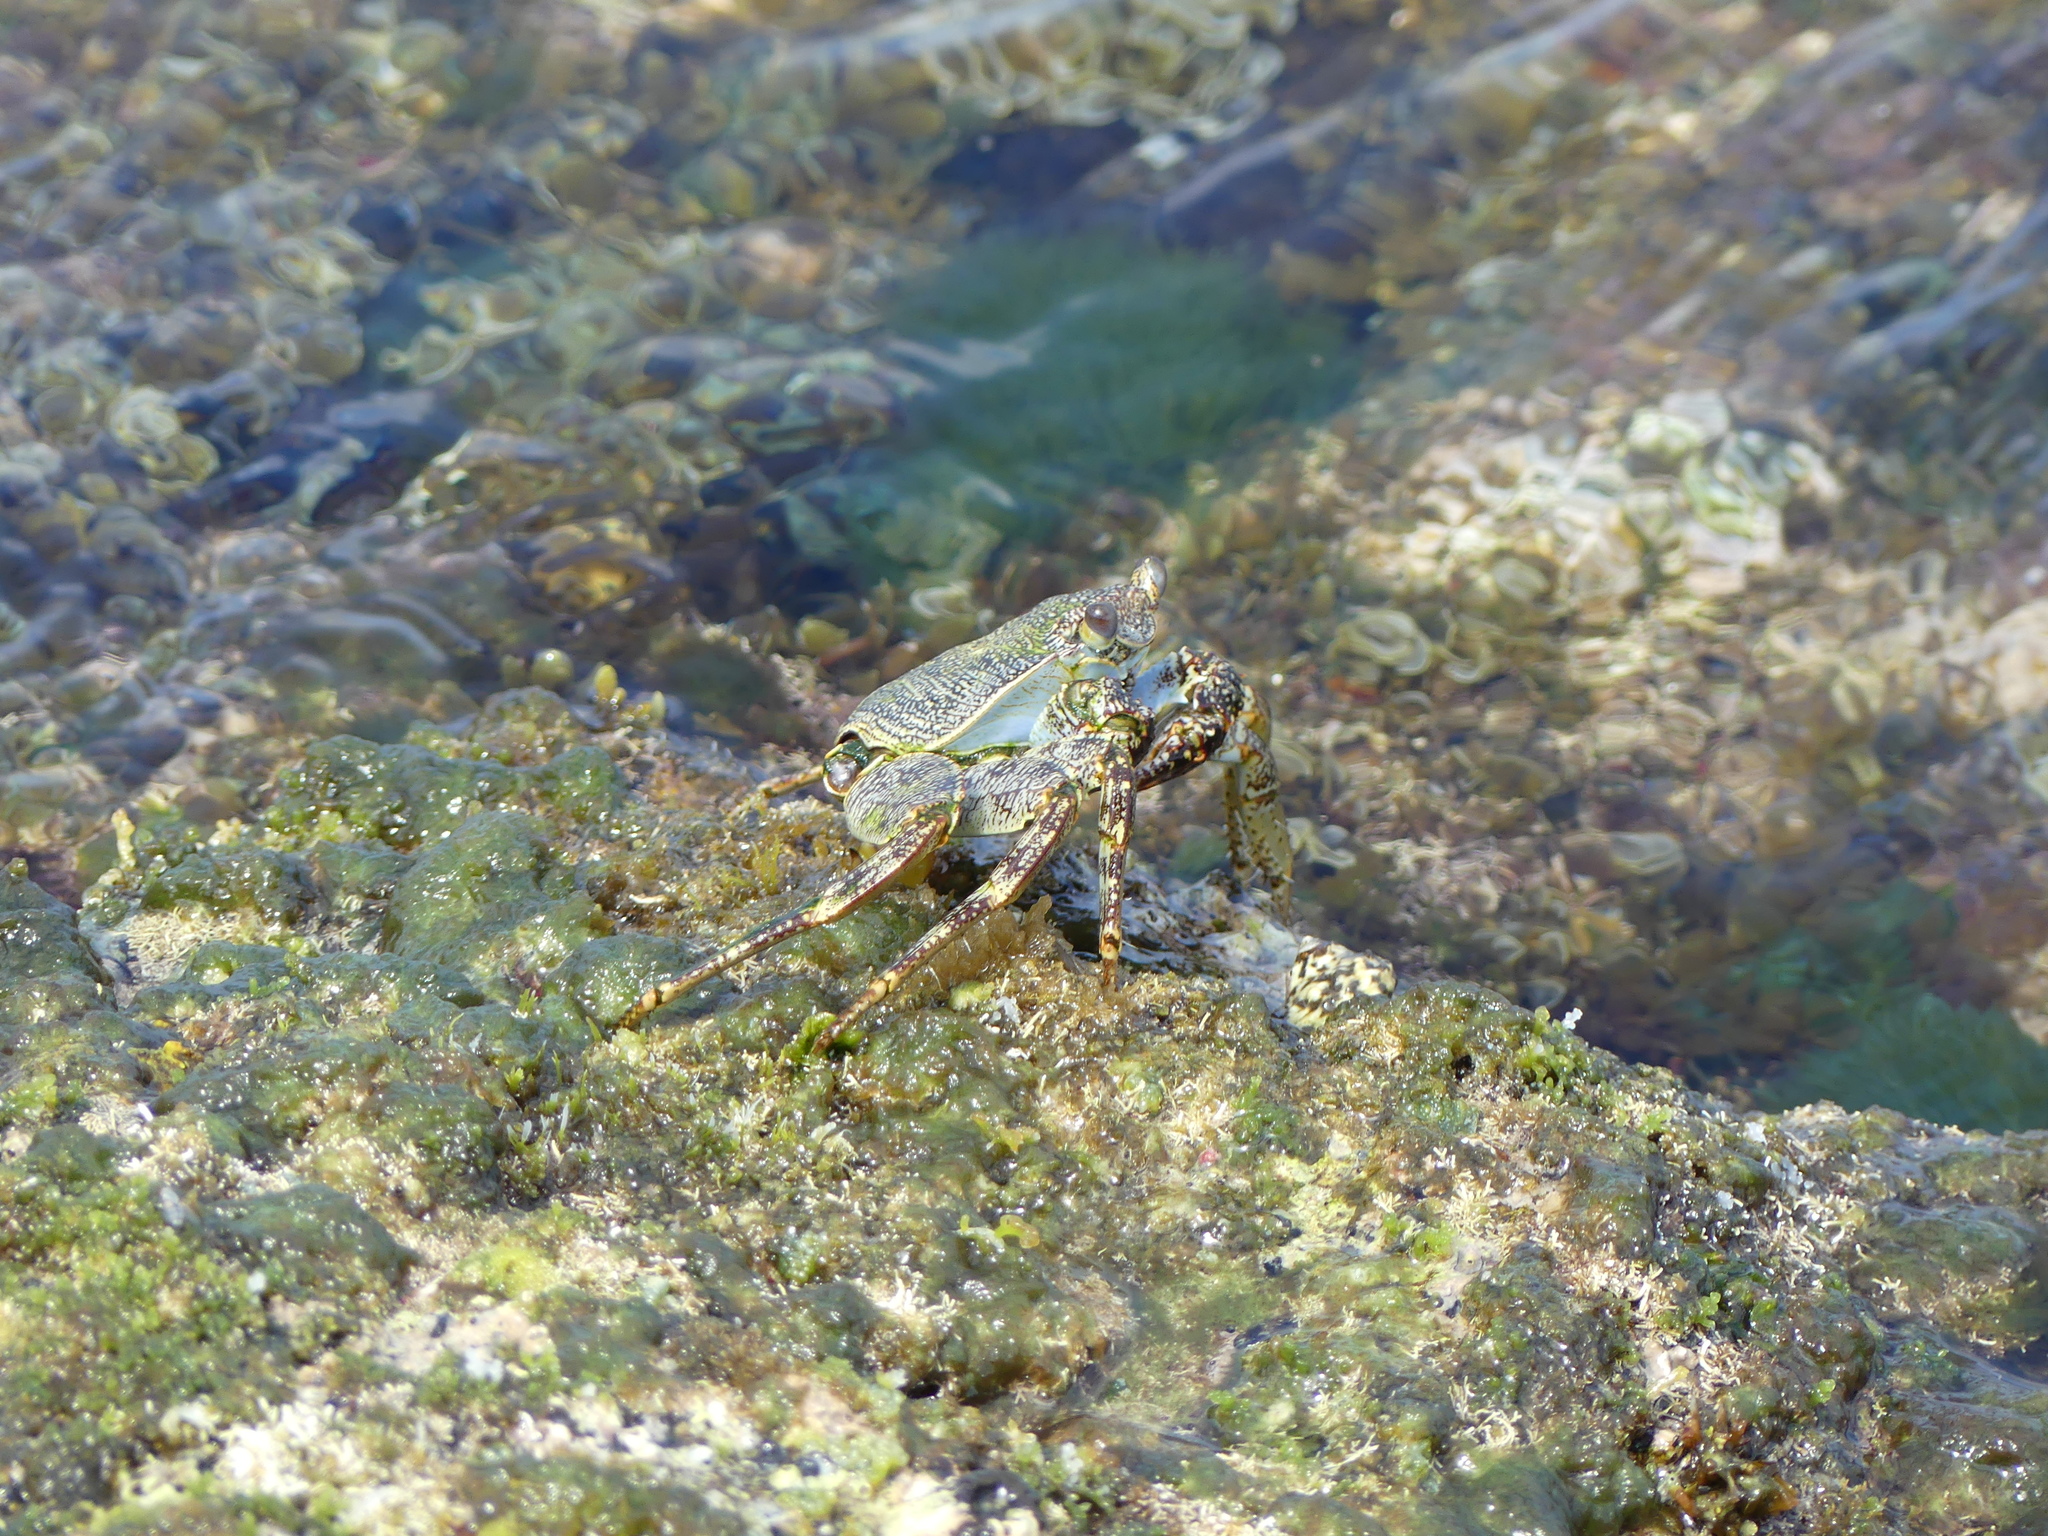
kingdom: Animalia
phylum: Arthropoda
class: Malacostraca
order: Decapoda
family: Grapsidae
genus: Grapsus
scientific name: Grapsus grapsus
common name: Sally lightfoot
